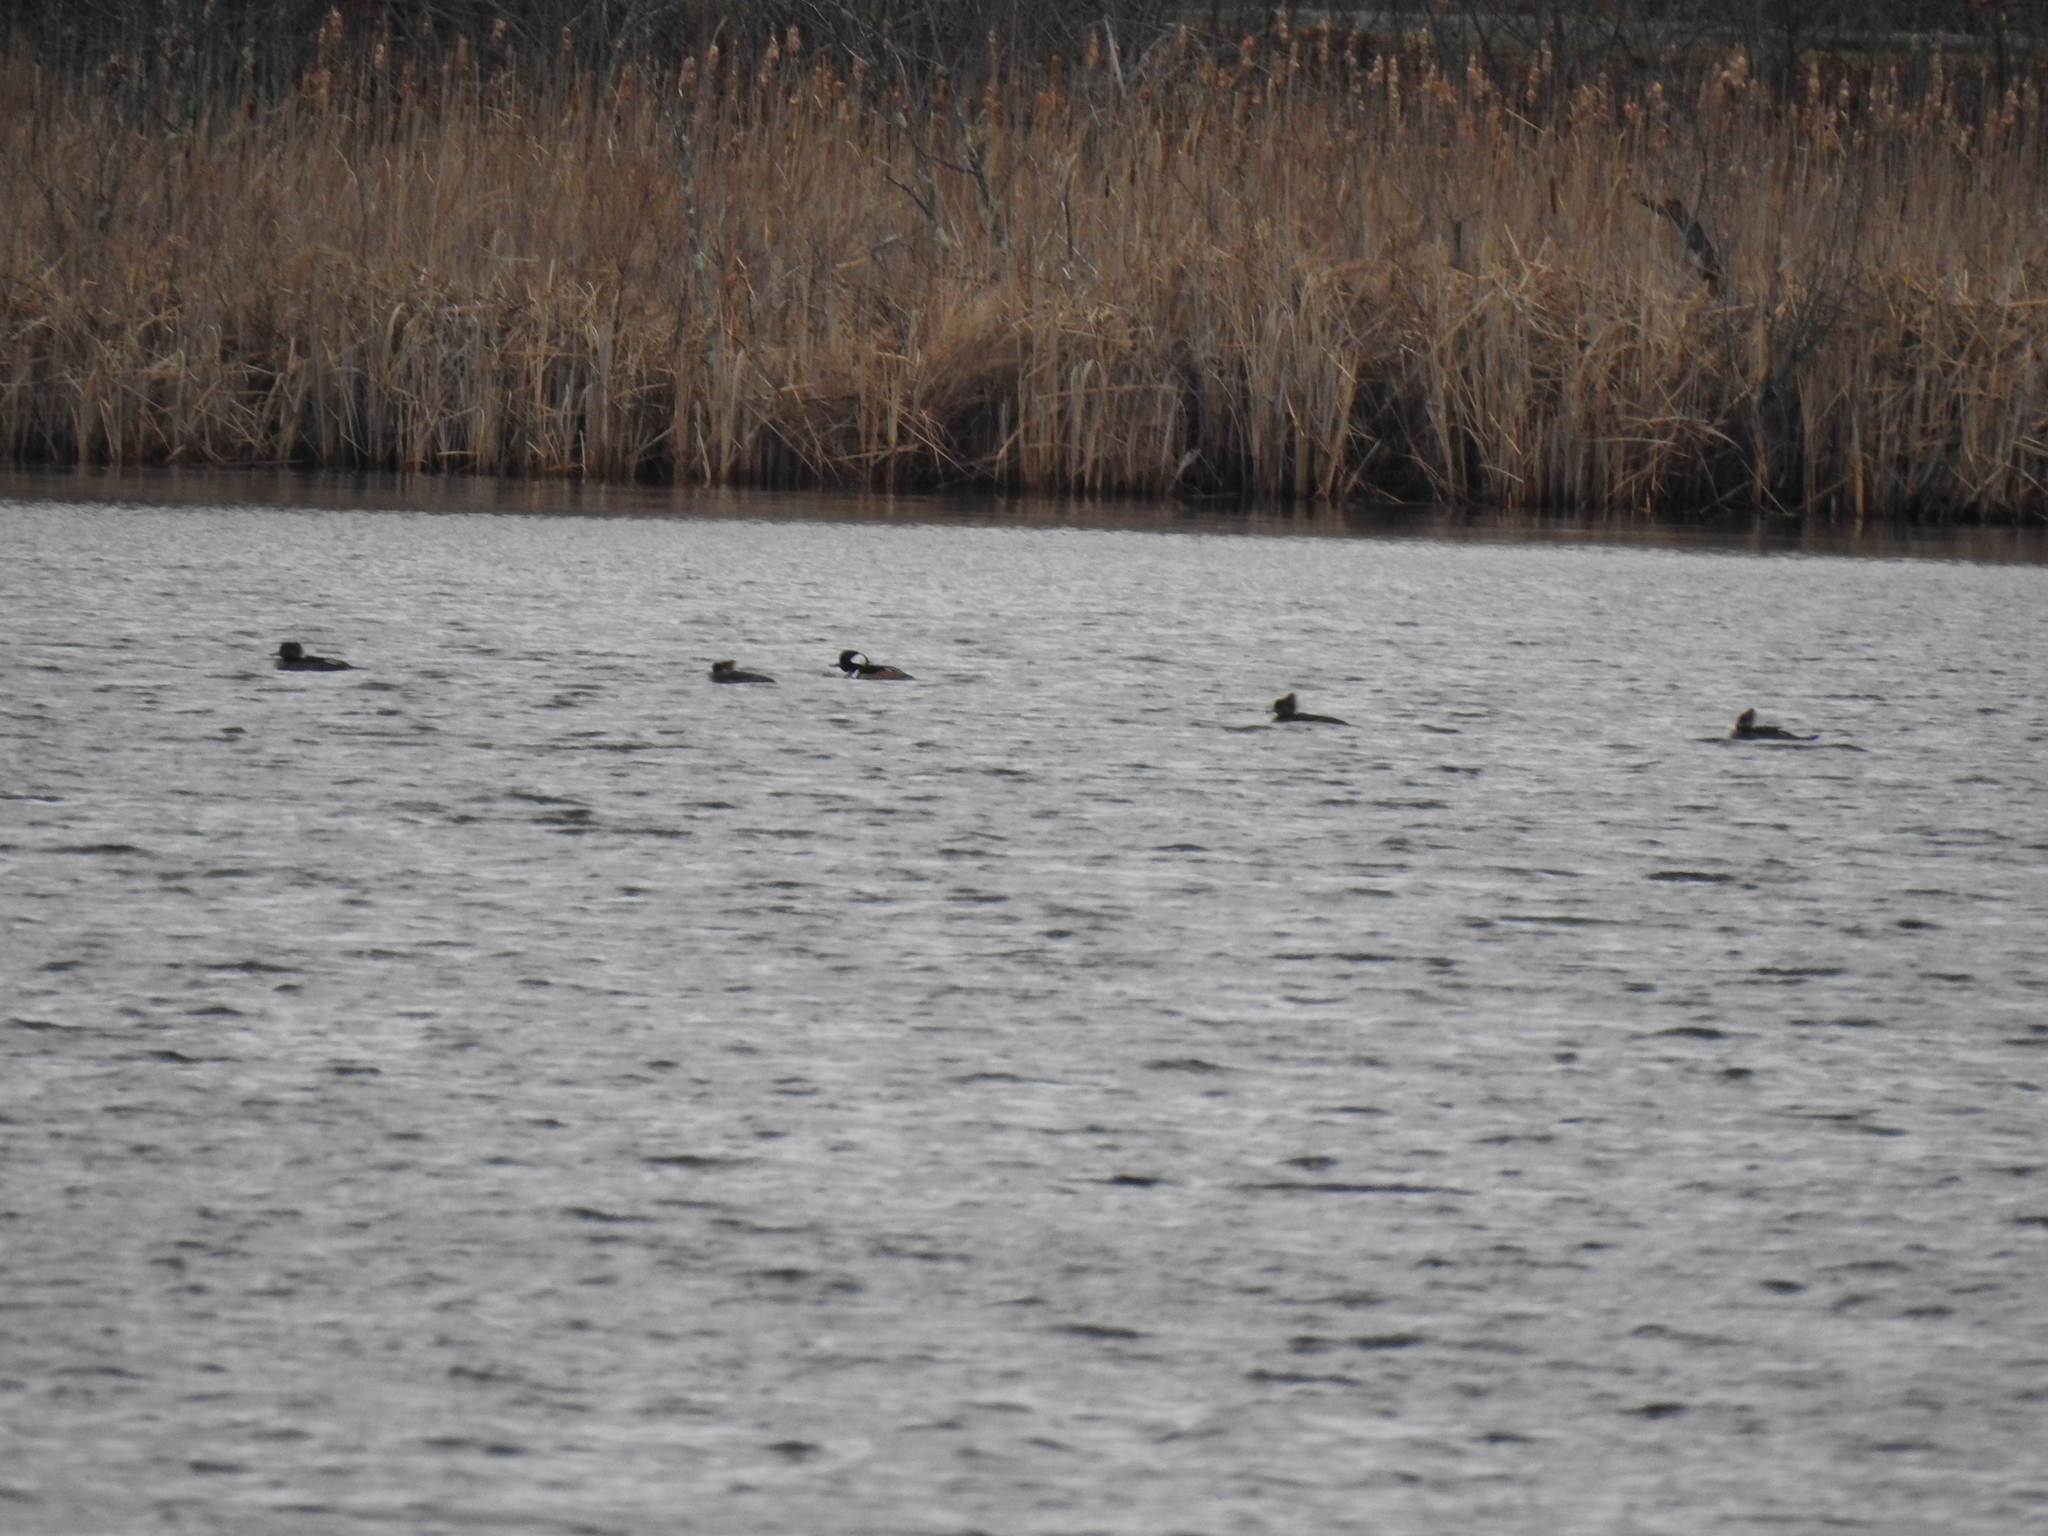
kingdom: Animalia
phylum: Chordata
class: Aves
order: Anseriformes
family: Anatidae
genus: Lophodytes
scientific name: Lophodytes cucullatus
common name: Hooded merganser
